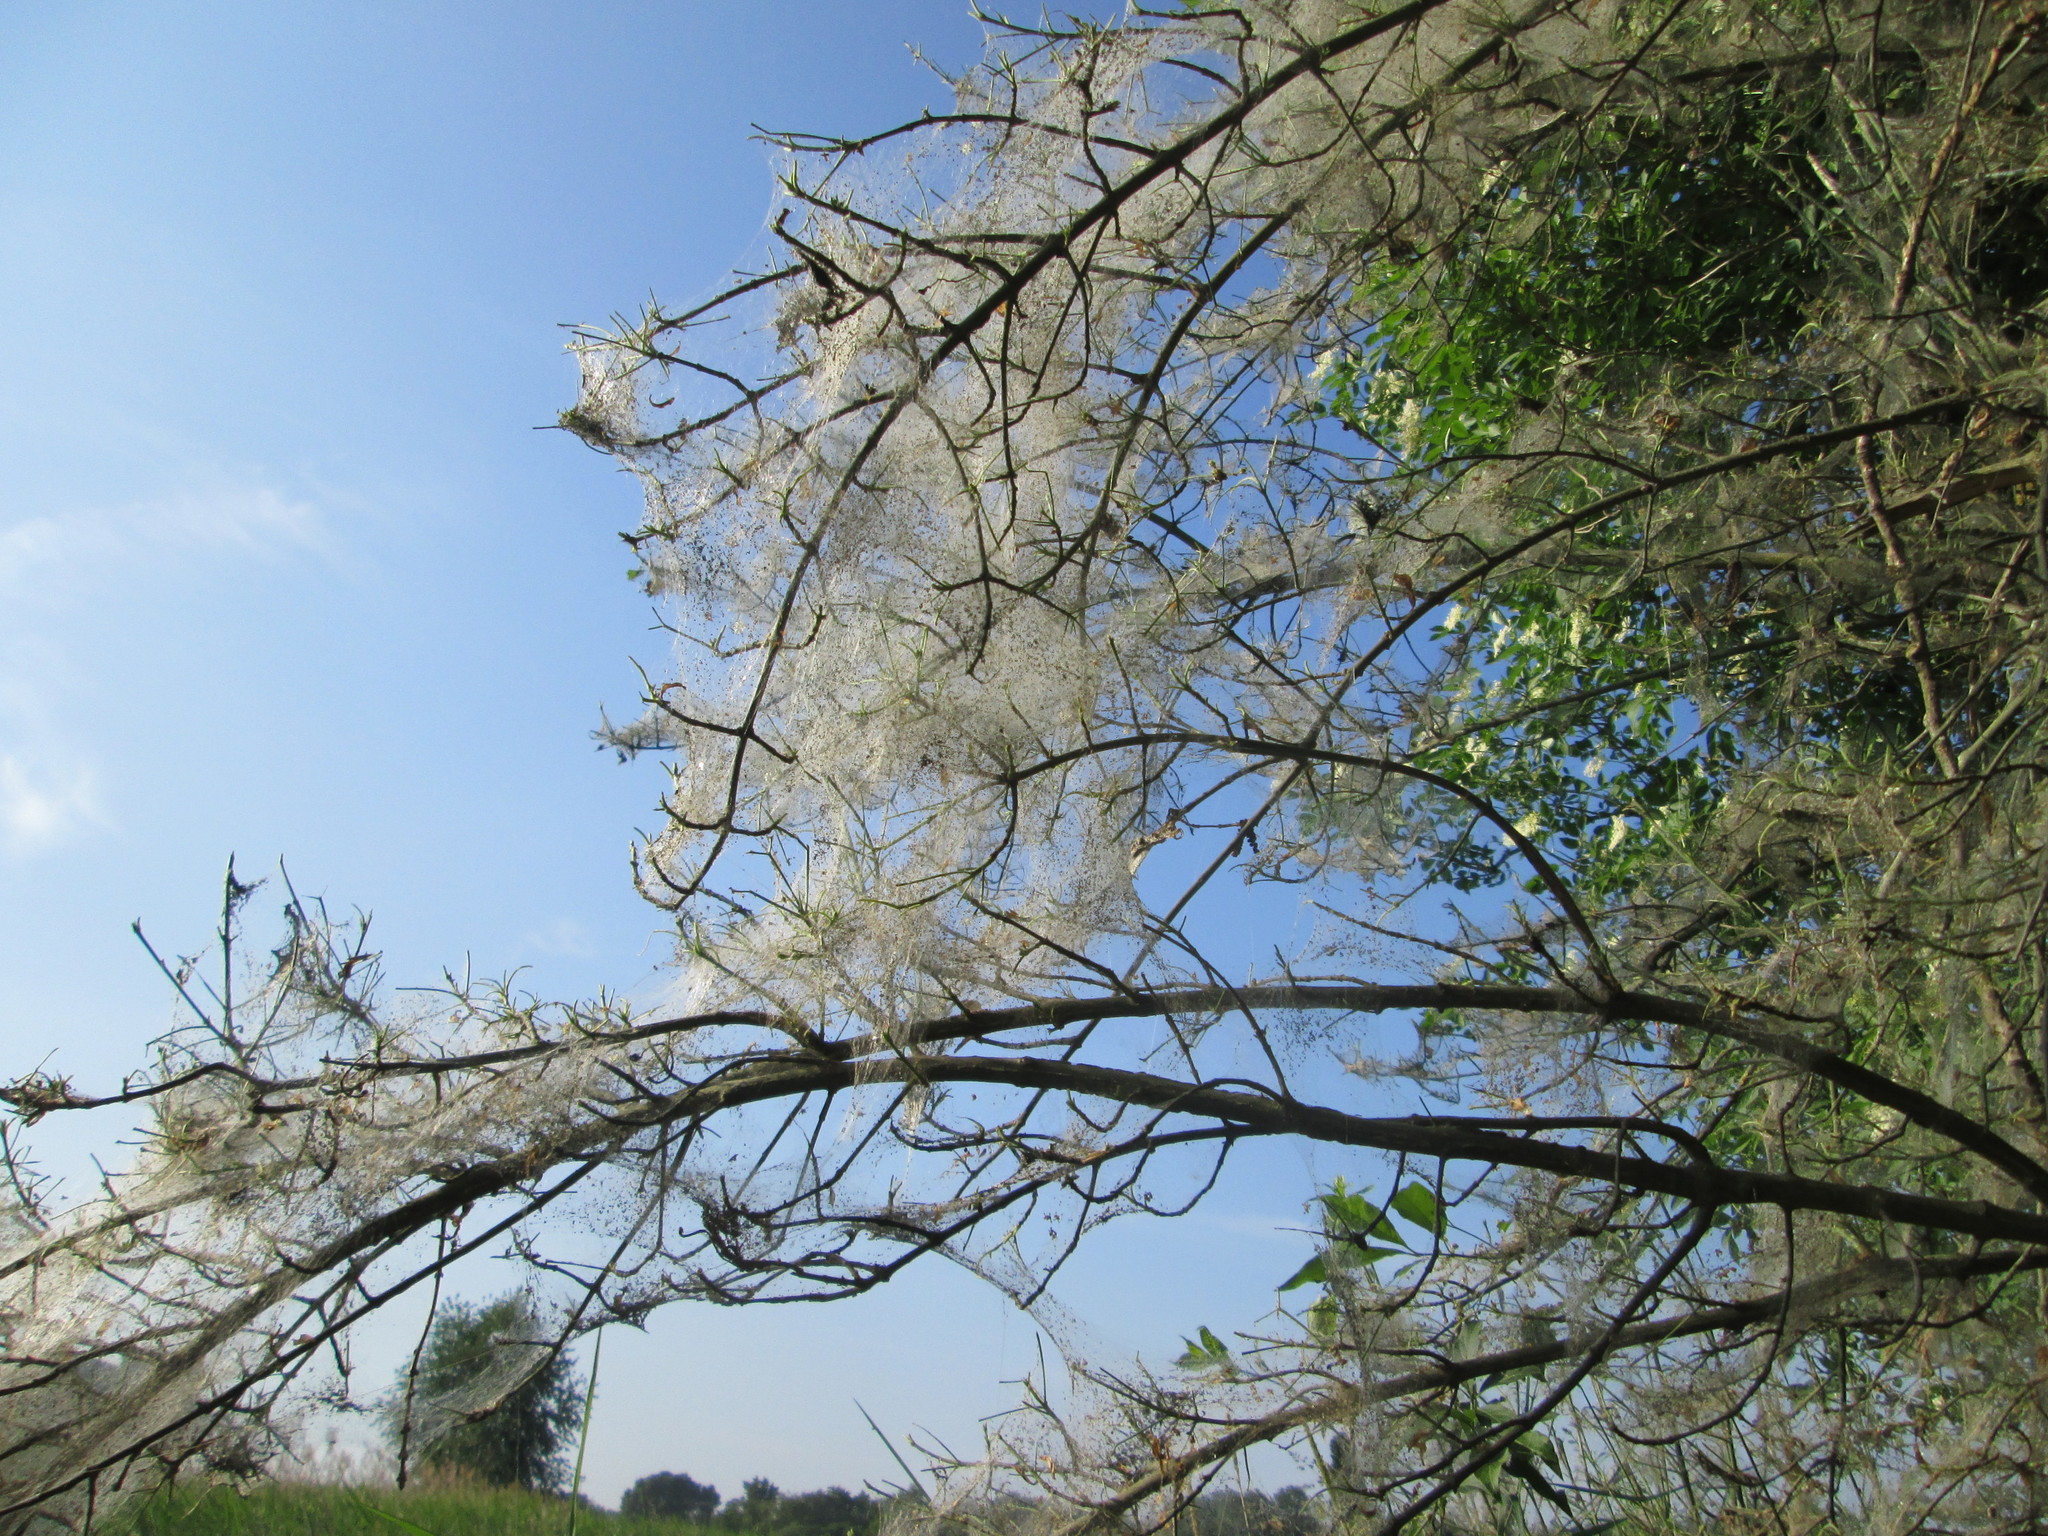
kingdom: Plantae
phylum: Tracheophyta
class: Magnoliopsida
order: Celastrales
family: Celastraceae
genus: Euonymus
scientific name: Euonymus europaeus
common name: Spindle
